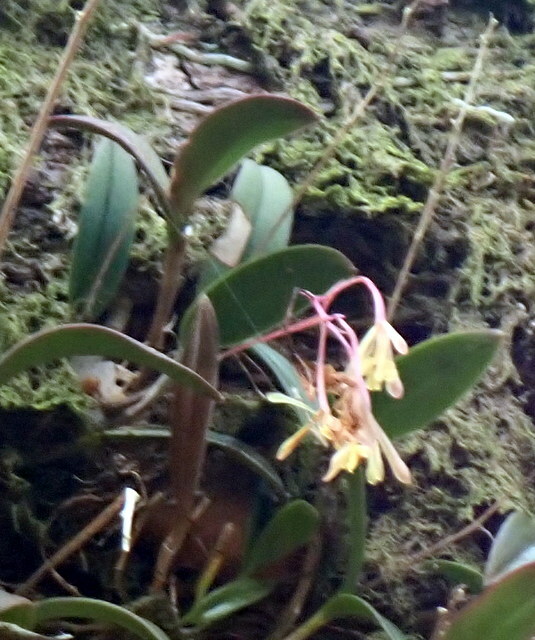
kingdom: Plantae
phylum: Tracheophyta
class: Liliopsida
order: Asparagales
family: Orchidaceae
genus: Epidendrum
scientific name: Epidendrum conopseum
